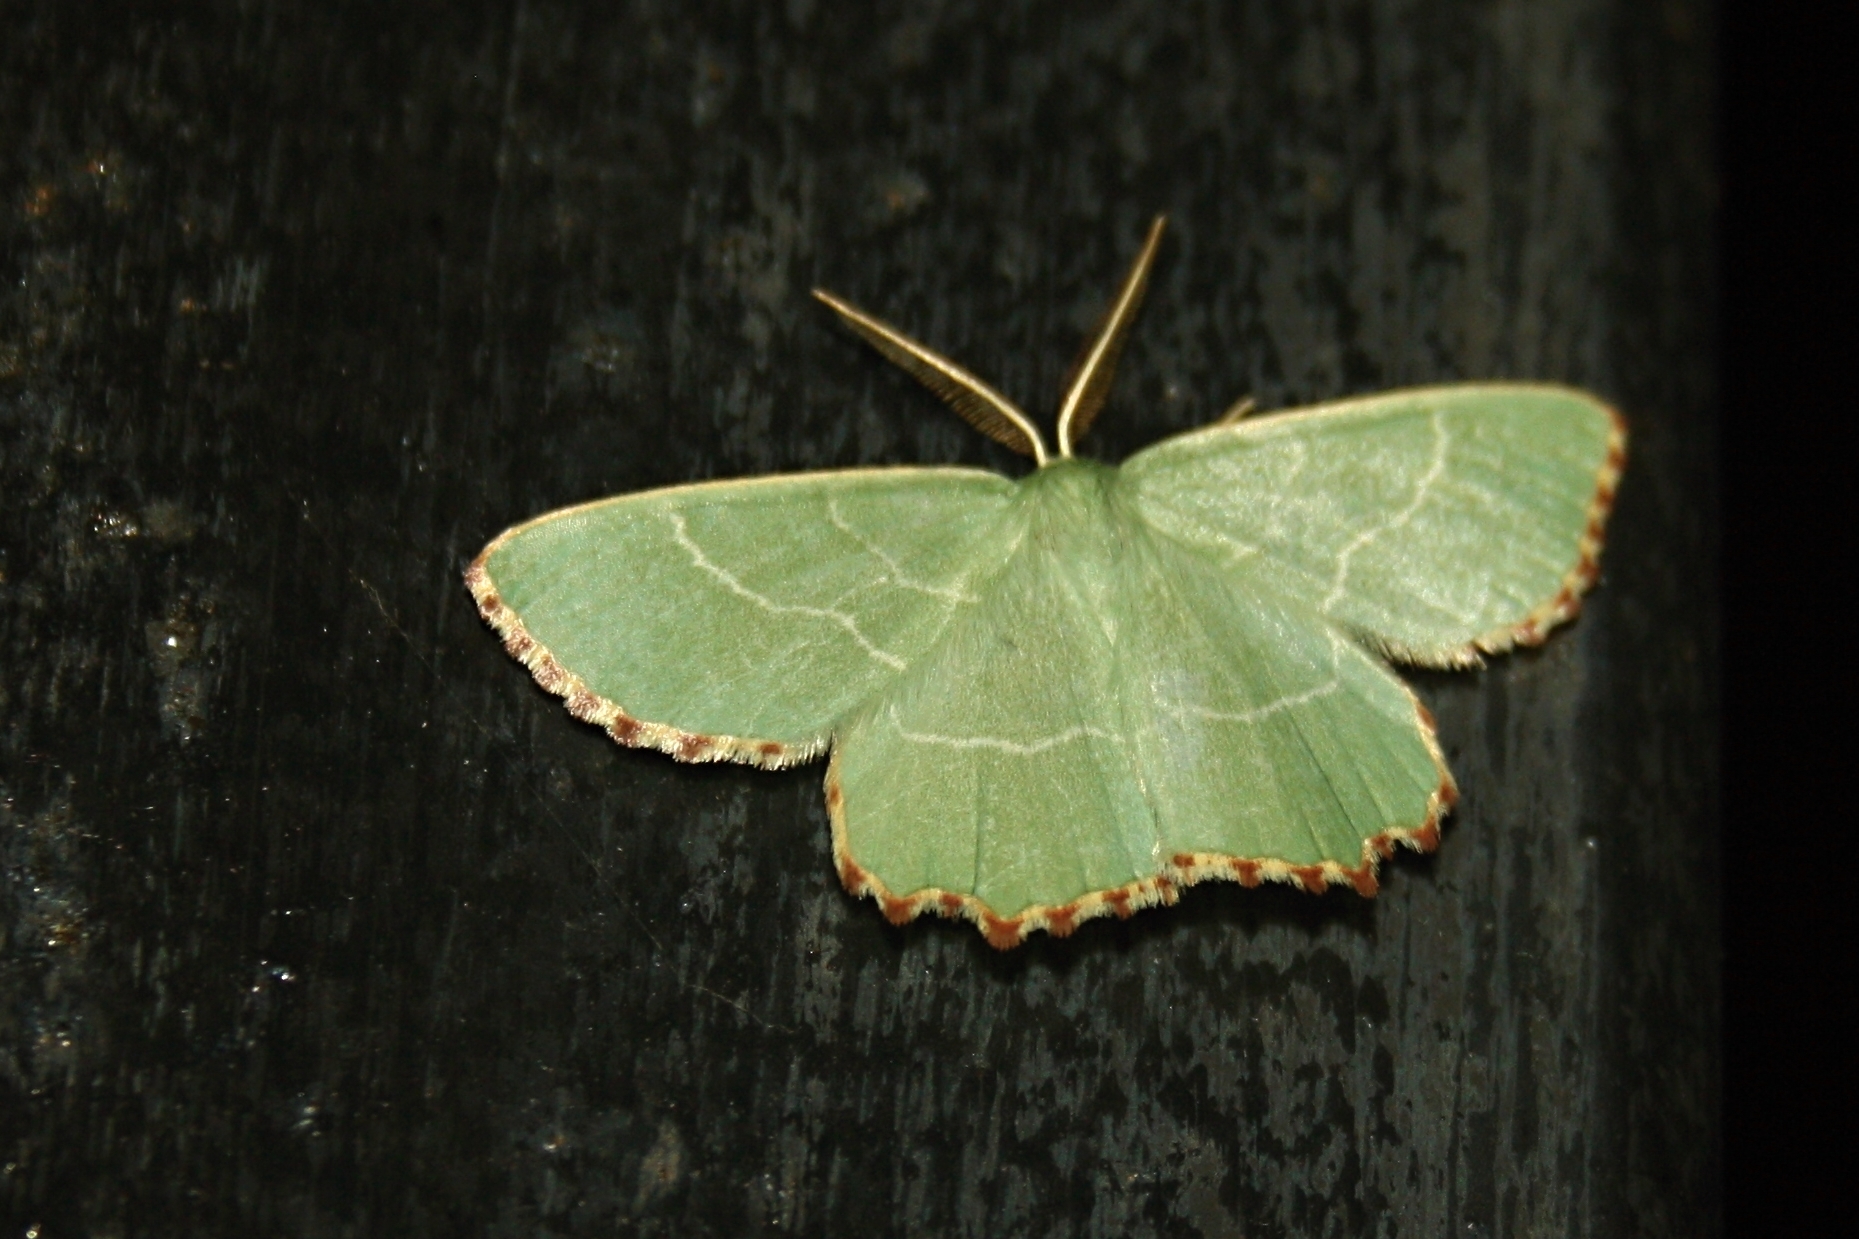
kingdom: Animalia
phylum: Arthropoda
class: Insecta
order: Lepidoptera
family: Geometridae
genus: Thalera
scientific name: Thalera fimbrialis
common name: Sussex emerald
